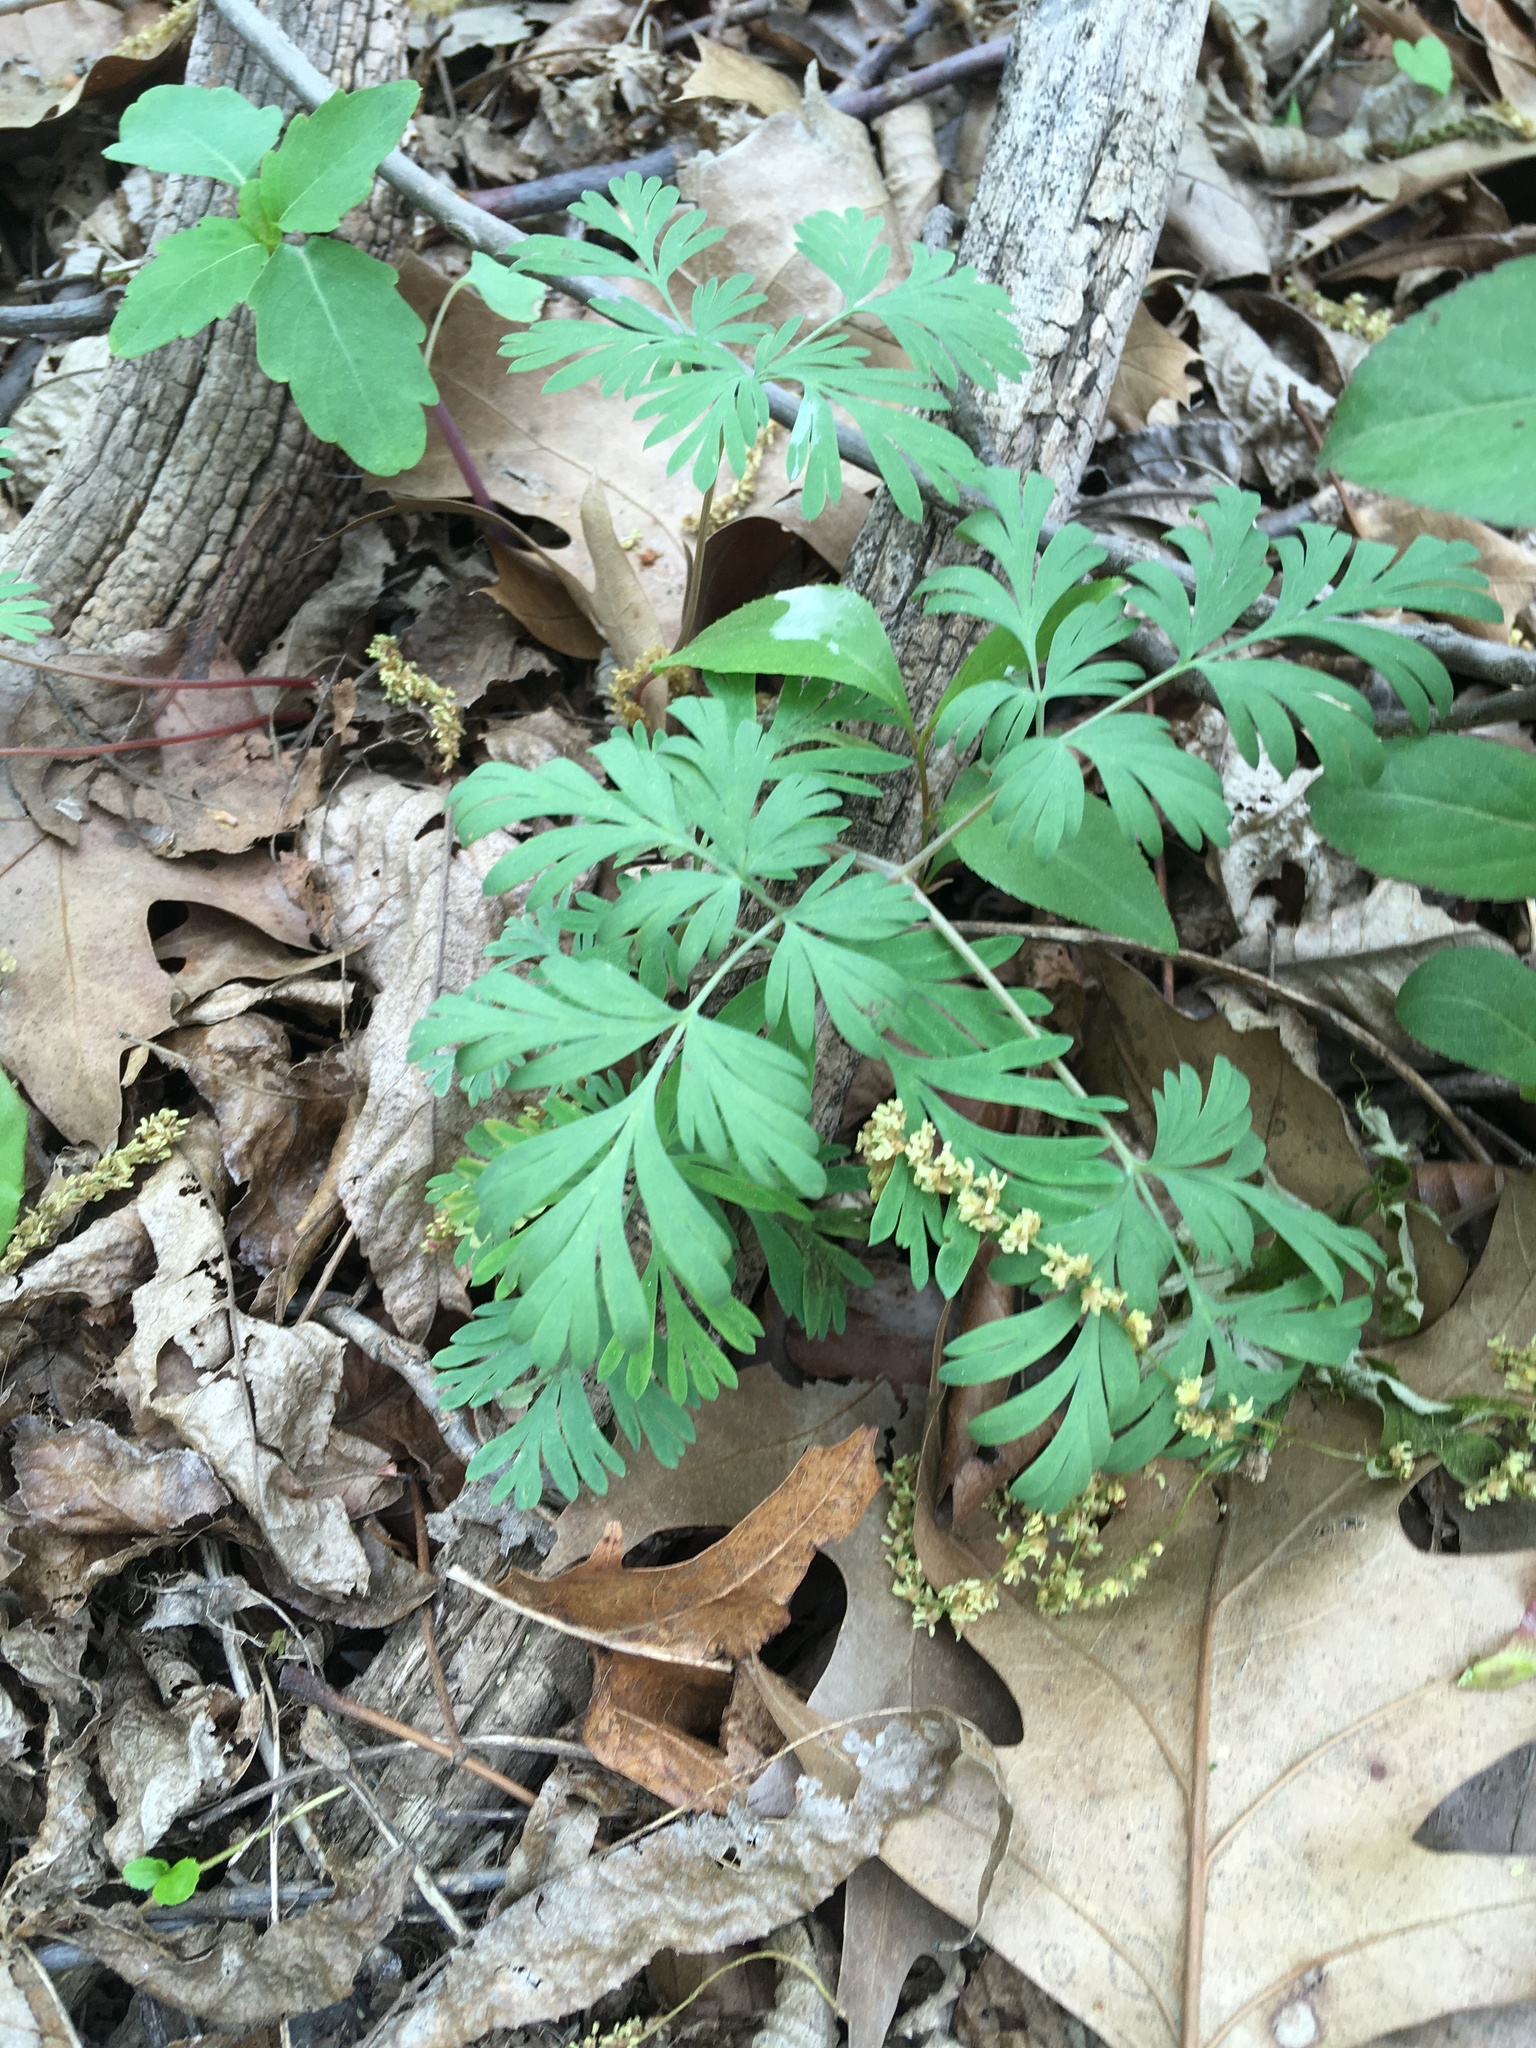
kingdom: Plantae
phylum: Tracheophyta
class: Magnoliopsida
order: Ranunculales
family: Papaveraceae
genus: Dicentra
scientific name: Dicentra cucullaria
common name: Dutchman's breeches
